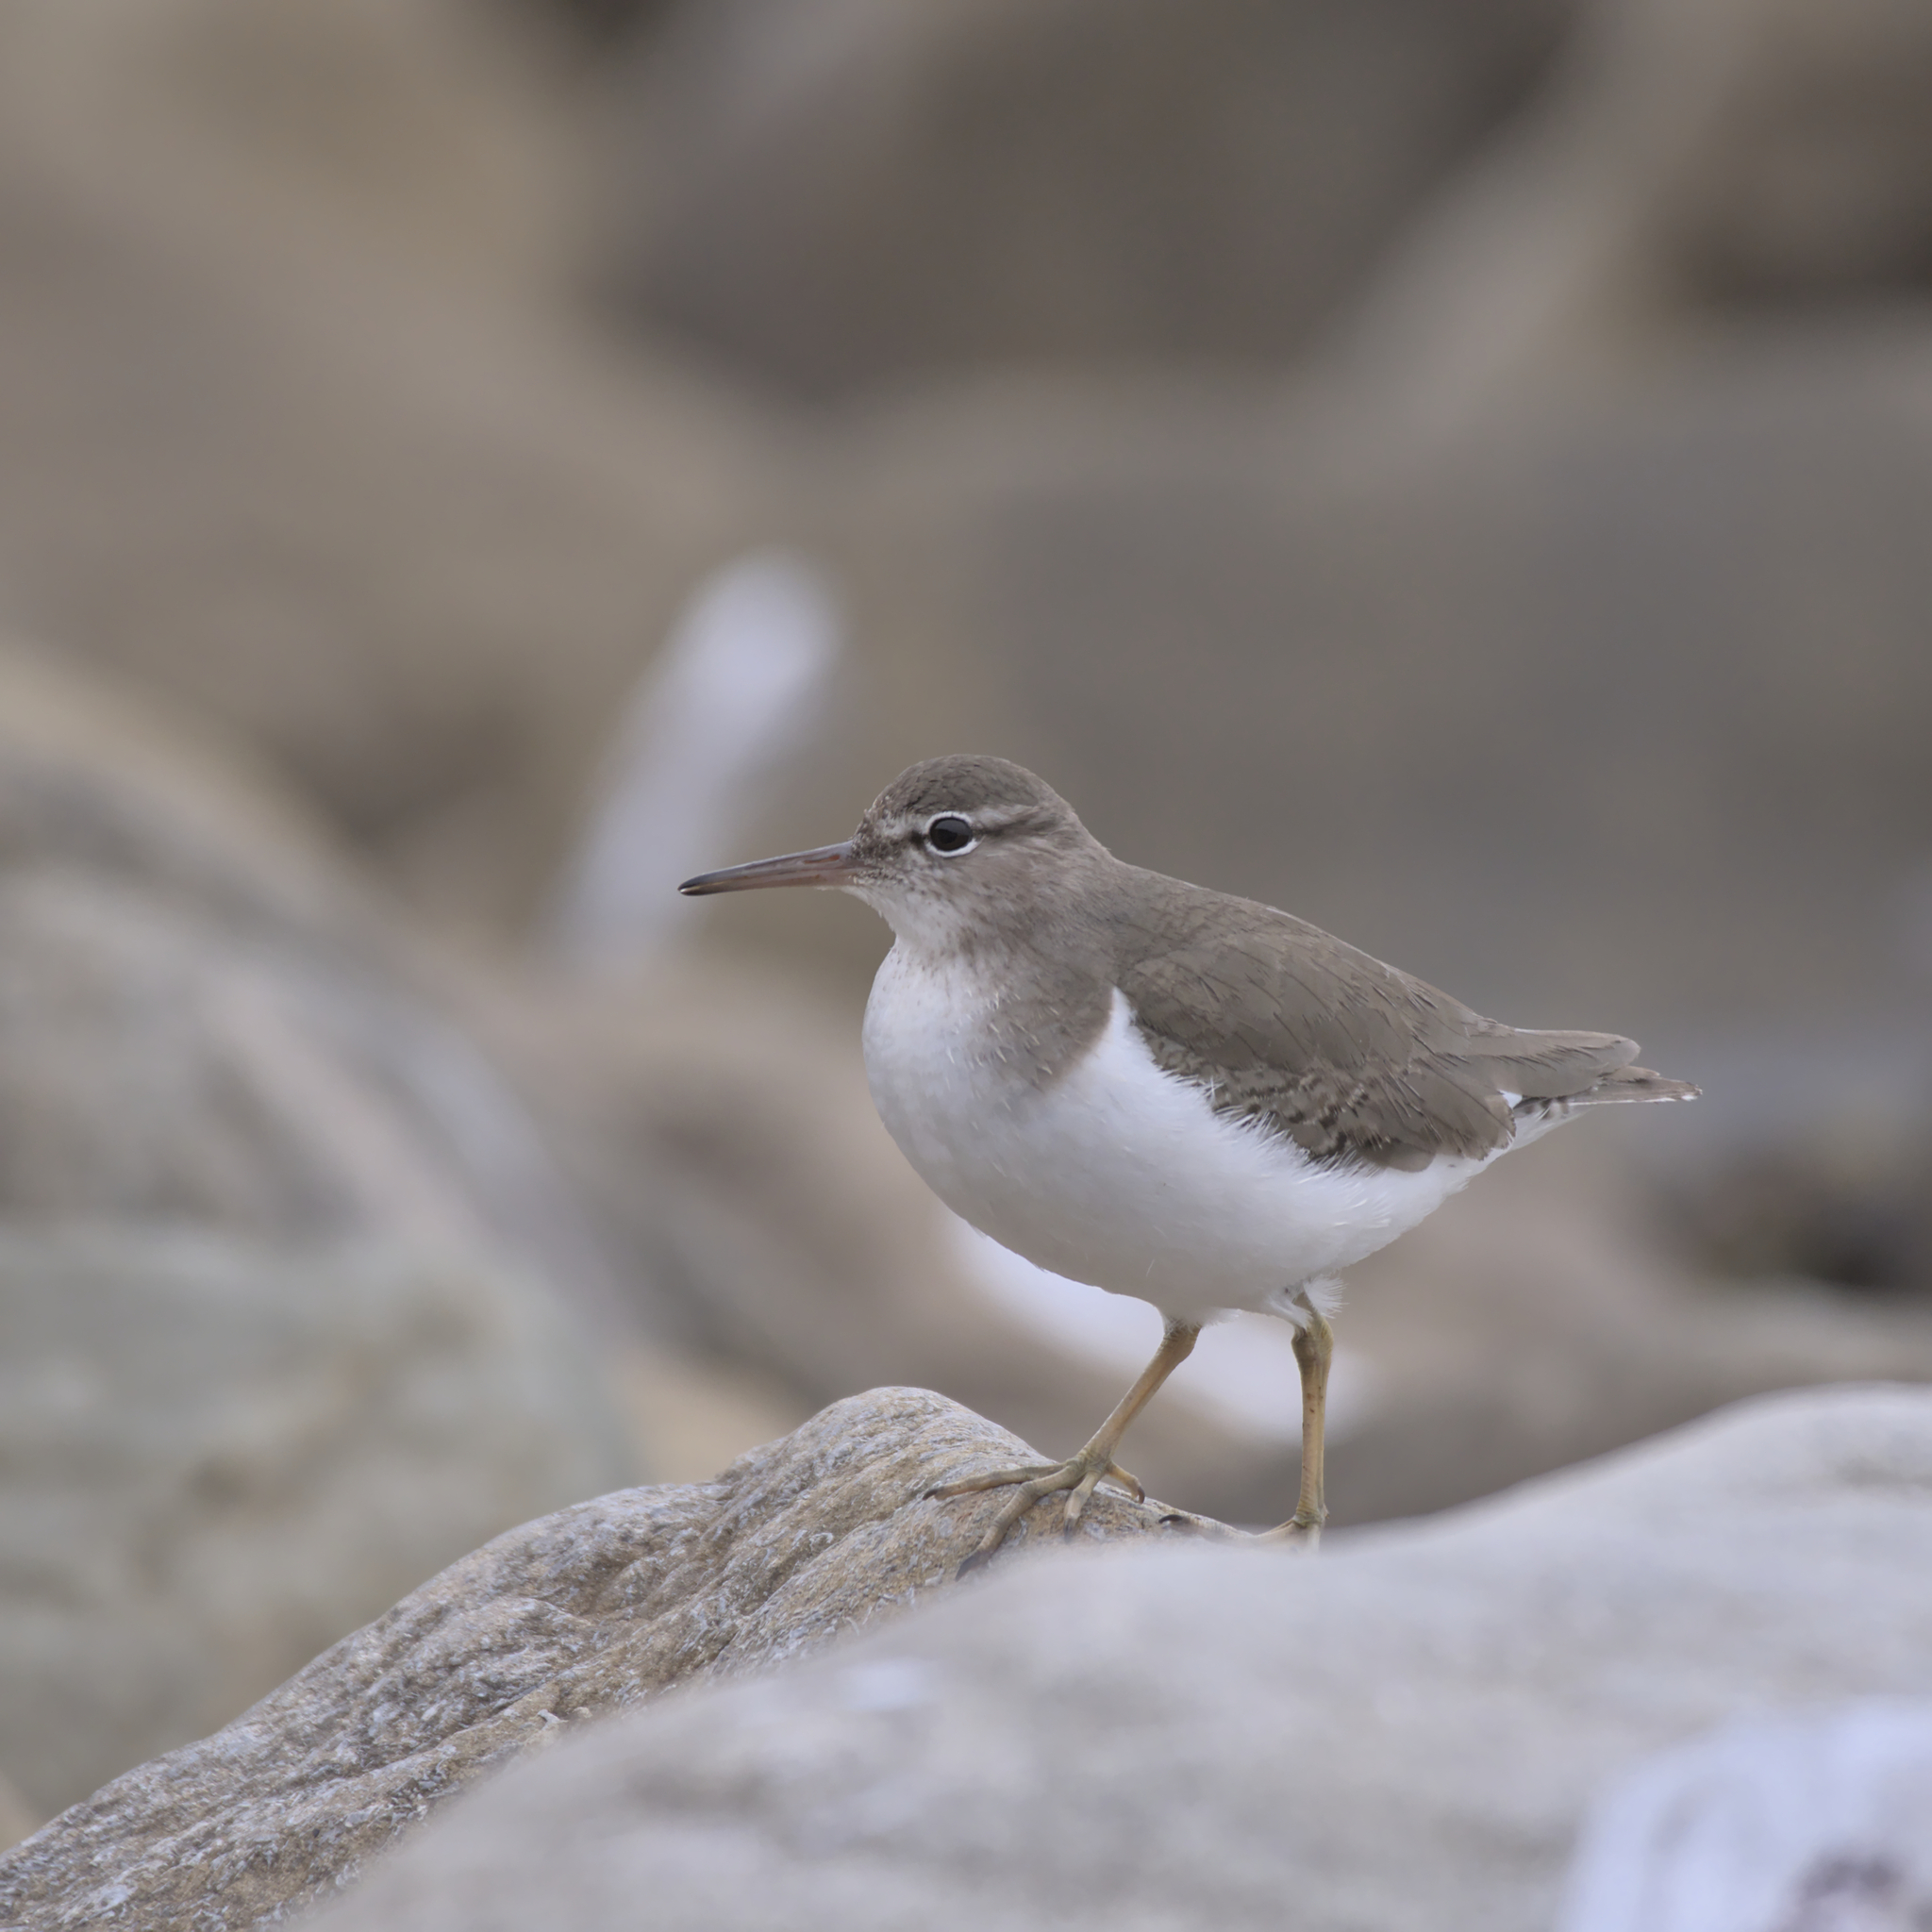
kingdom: Animalia
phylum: Chordata
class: Aves
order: Charadriiformes
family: Scolopacidae
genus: Actitis
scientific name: Actitis macularius
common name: Spotted sandpiper
